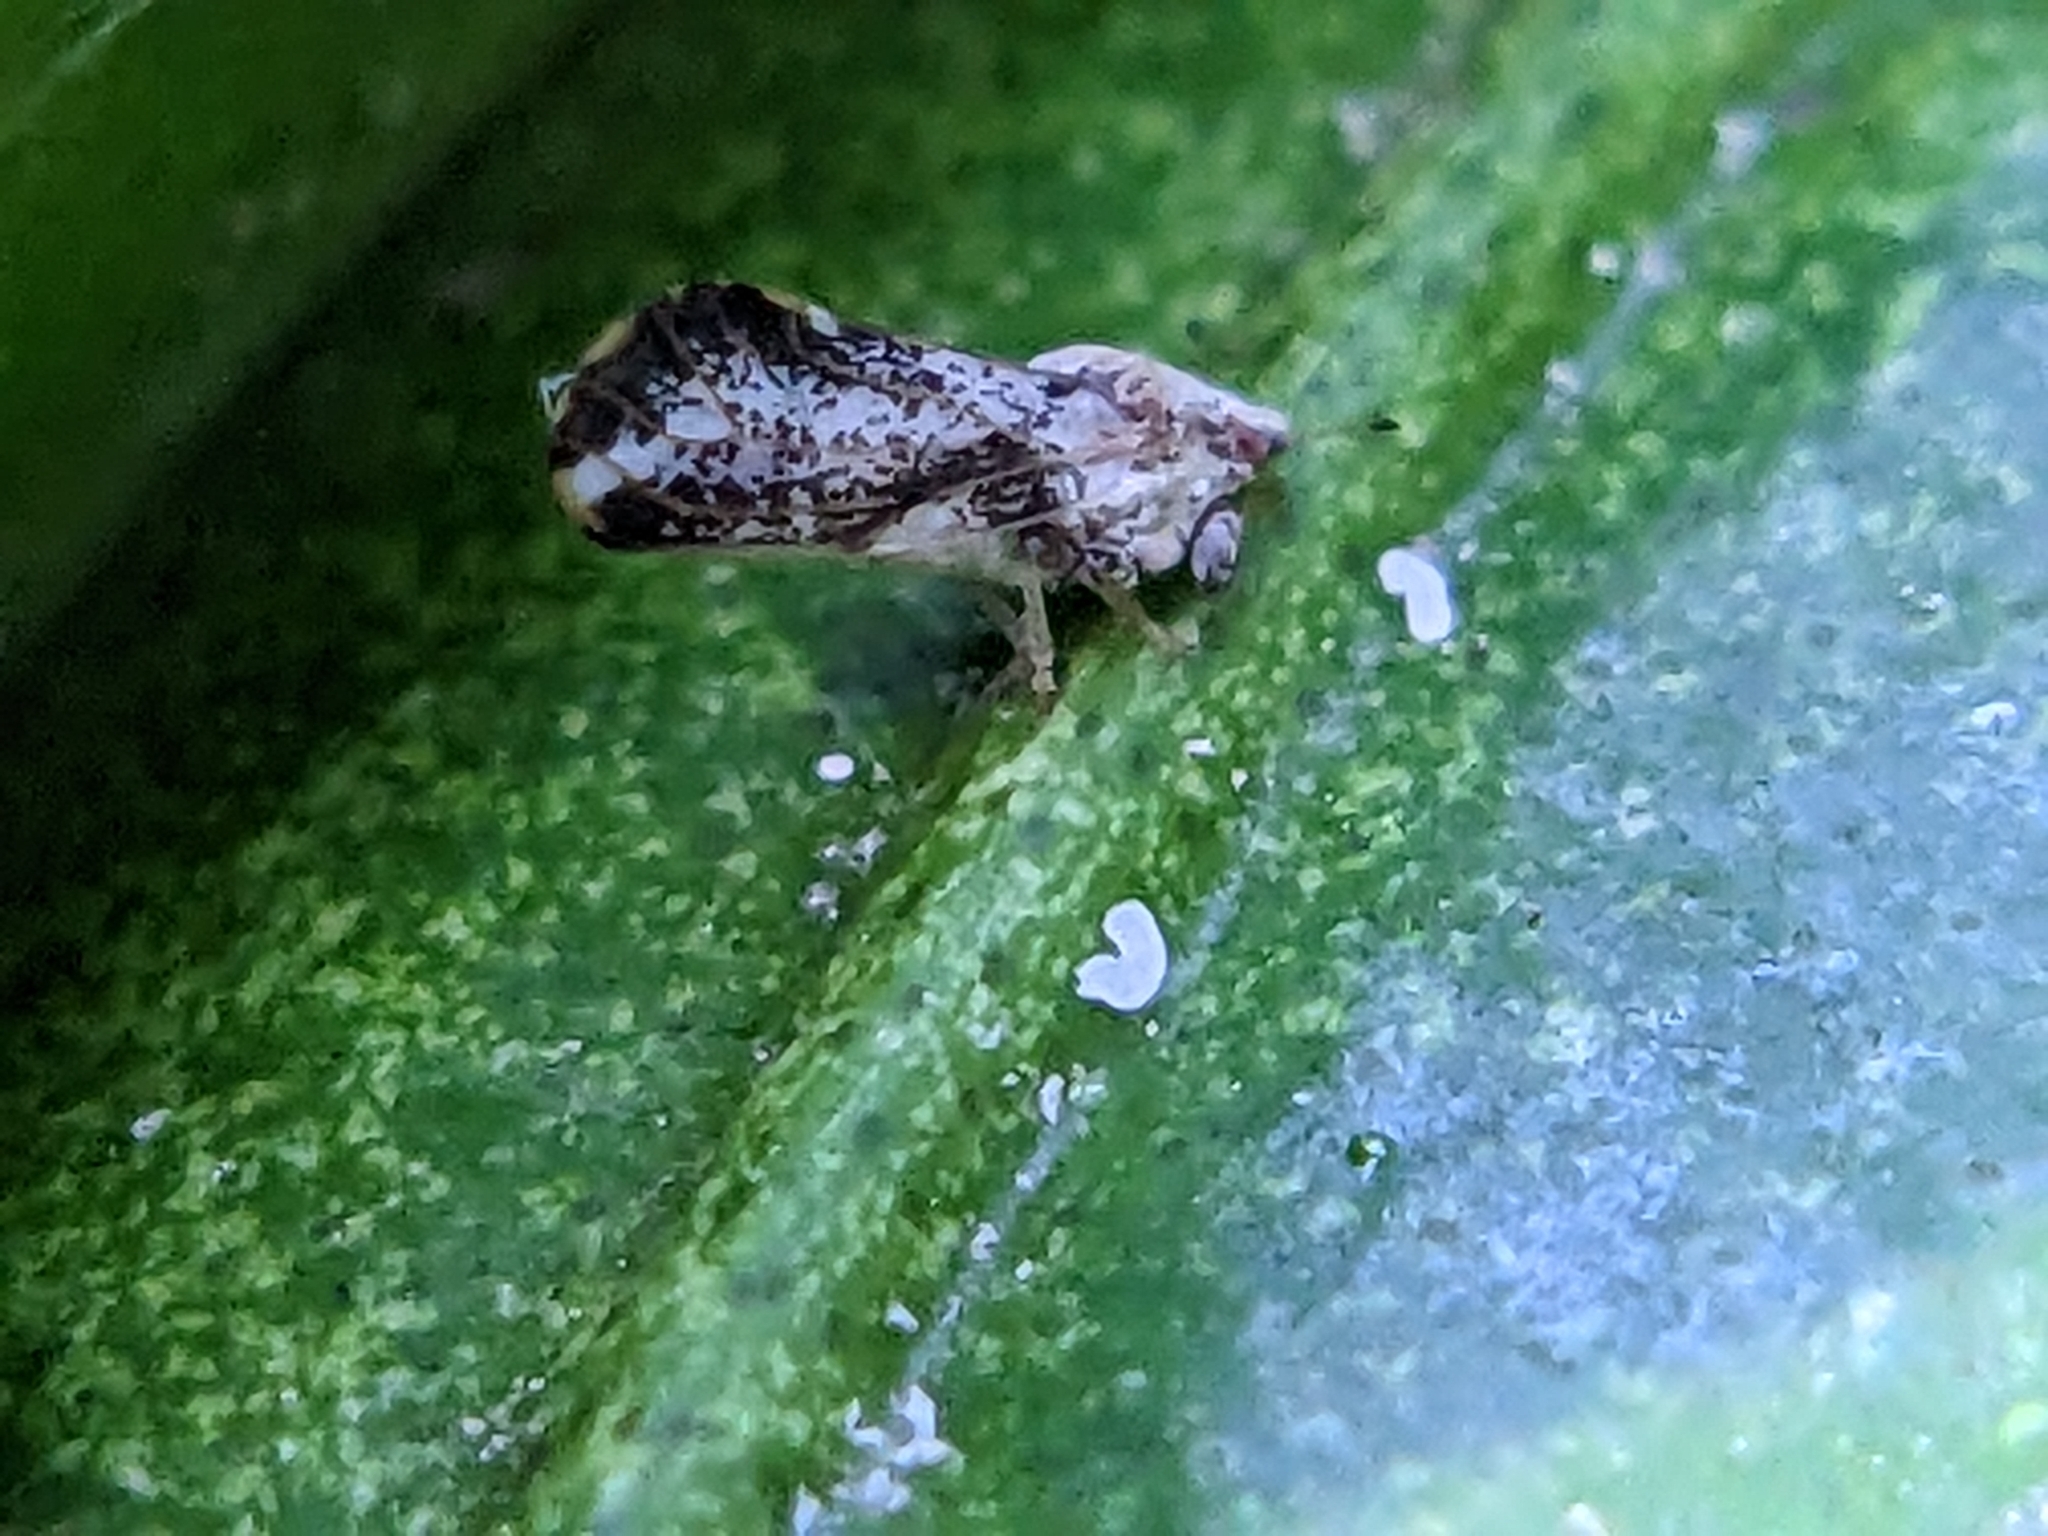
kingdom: Animalia
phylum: Arthropoda
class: Insecta
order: Hemiptera
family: Liviidae
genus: Diaphorina
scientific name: Diaphorina citri
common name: Asian citrus psyllid
